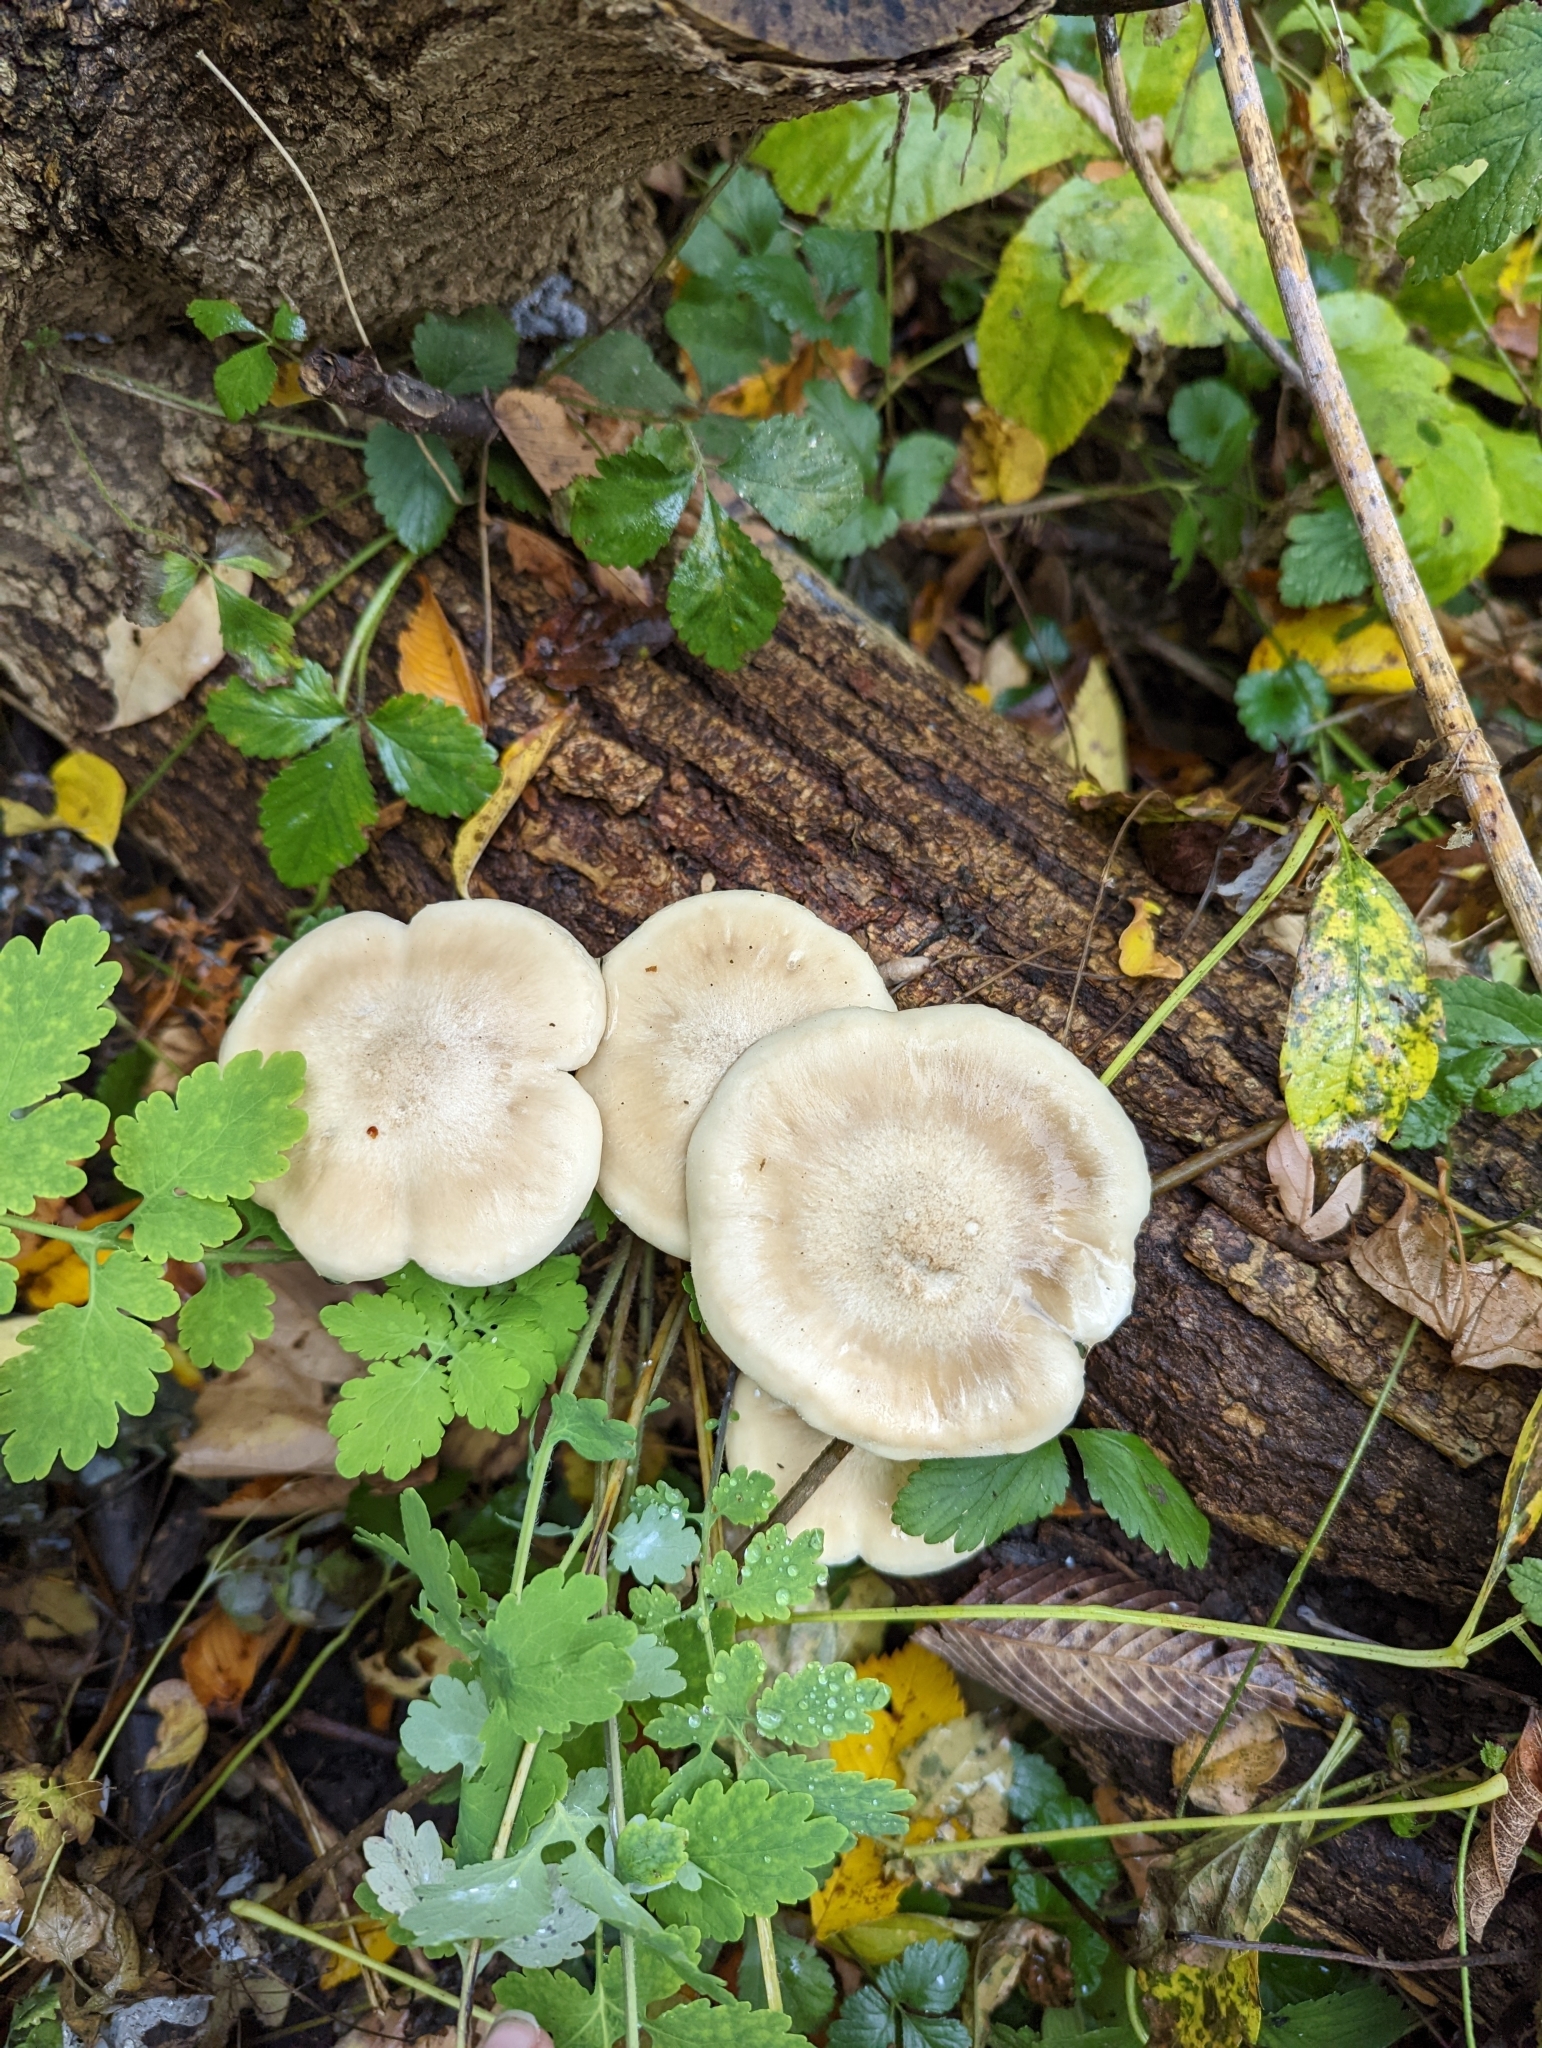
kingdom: Fungi
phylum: Basidiomycota
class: Agaricomycetes
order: Agaricales
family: Tricholomataceae
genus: Clitocybe
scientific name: Clitocybe nebularis
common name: Clouded agaric
